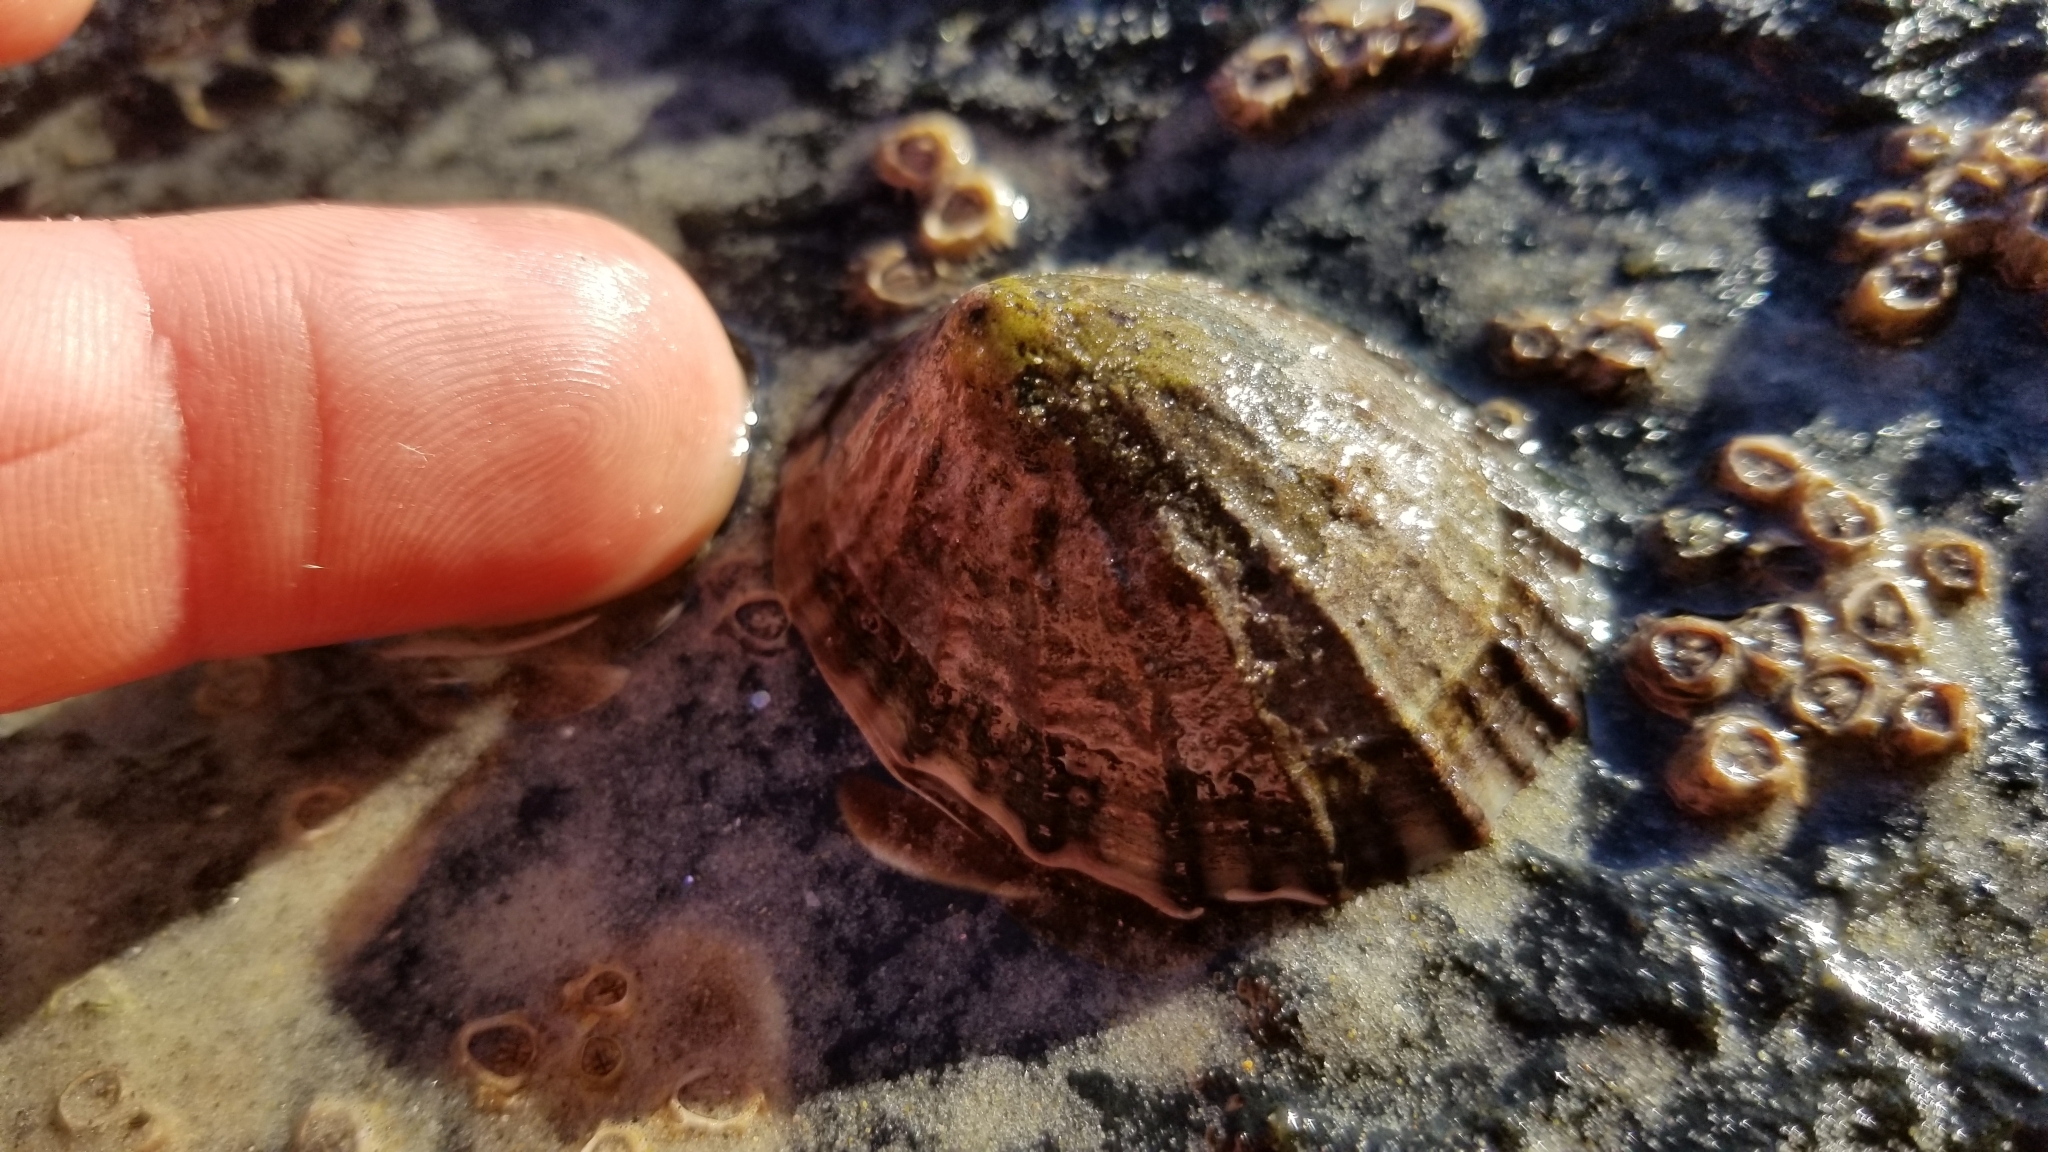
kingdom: Animalia
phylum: Mollusca
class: Gastropoda
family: Nacellidae
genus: Cellana
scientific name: Cellana strigilis
